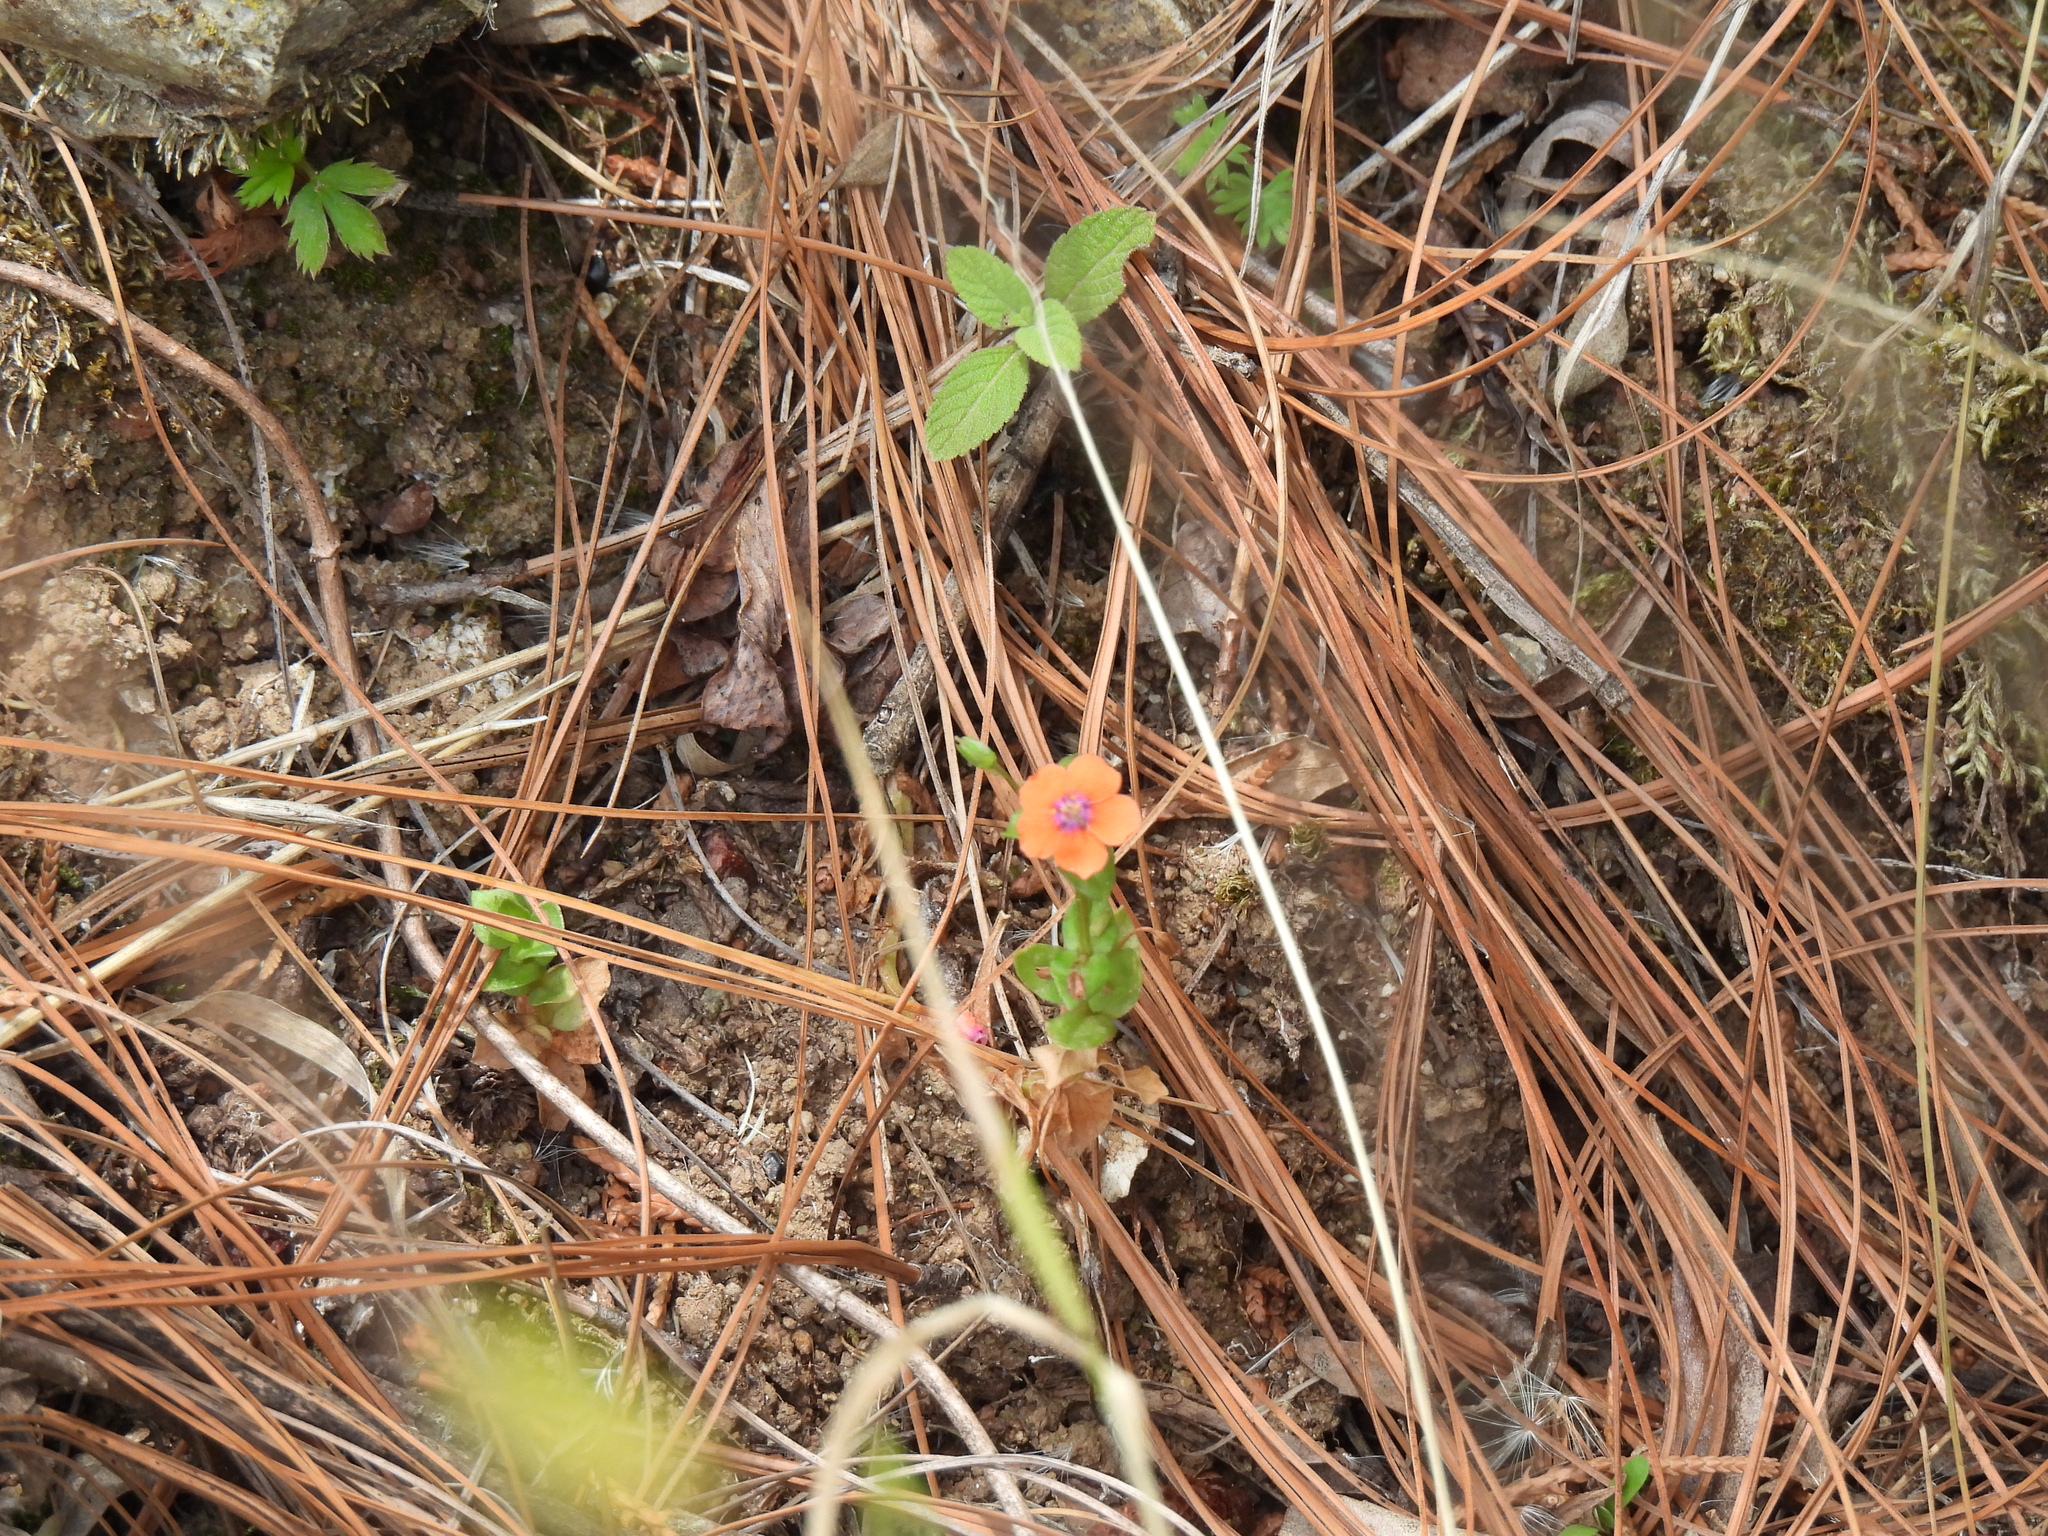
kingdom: Plantae
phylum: Tracheophyta
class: Magnoliopsida
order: Ericales
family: Primulaceae
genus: Lysimachia
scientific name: Lysimachia arvensis
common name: Scarlet pimpernel
